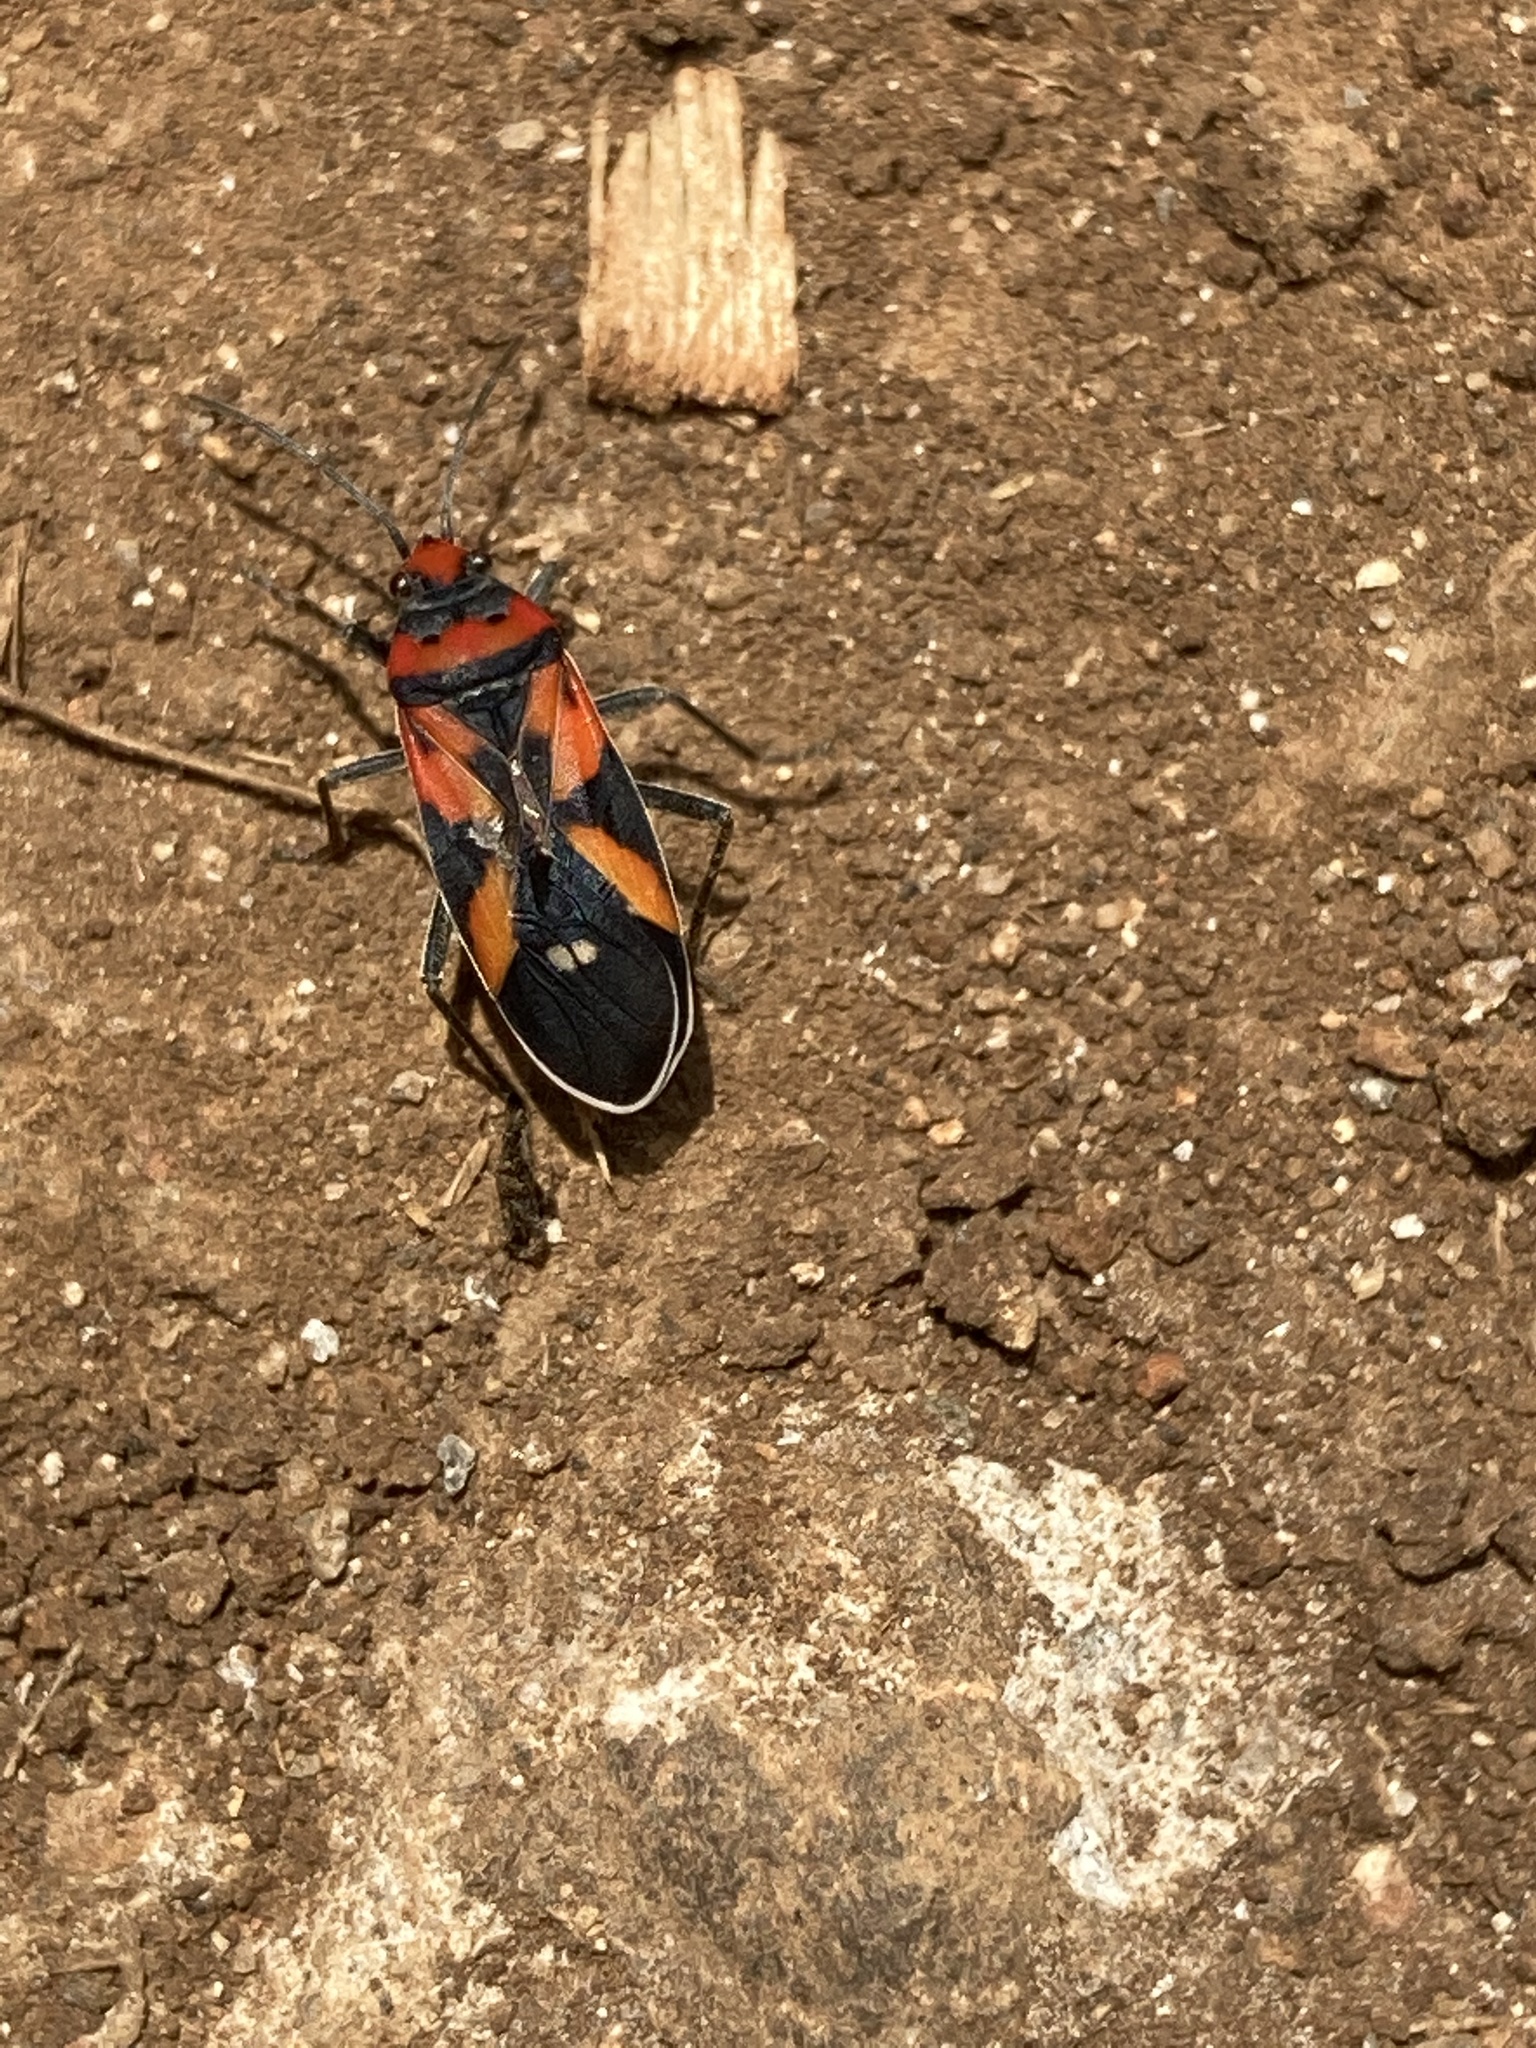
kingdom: Animalia
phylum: Arthropoda
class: Insecta
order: Hemiptera
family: Lygaeidae
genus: Lygaeus
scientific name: Lygaeus analis
